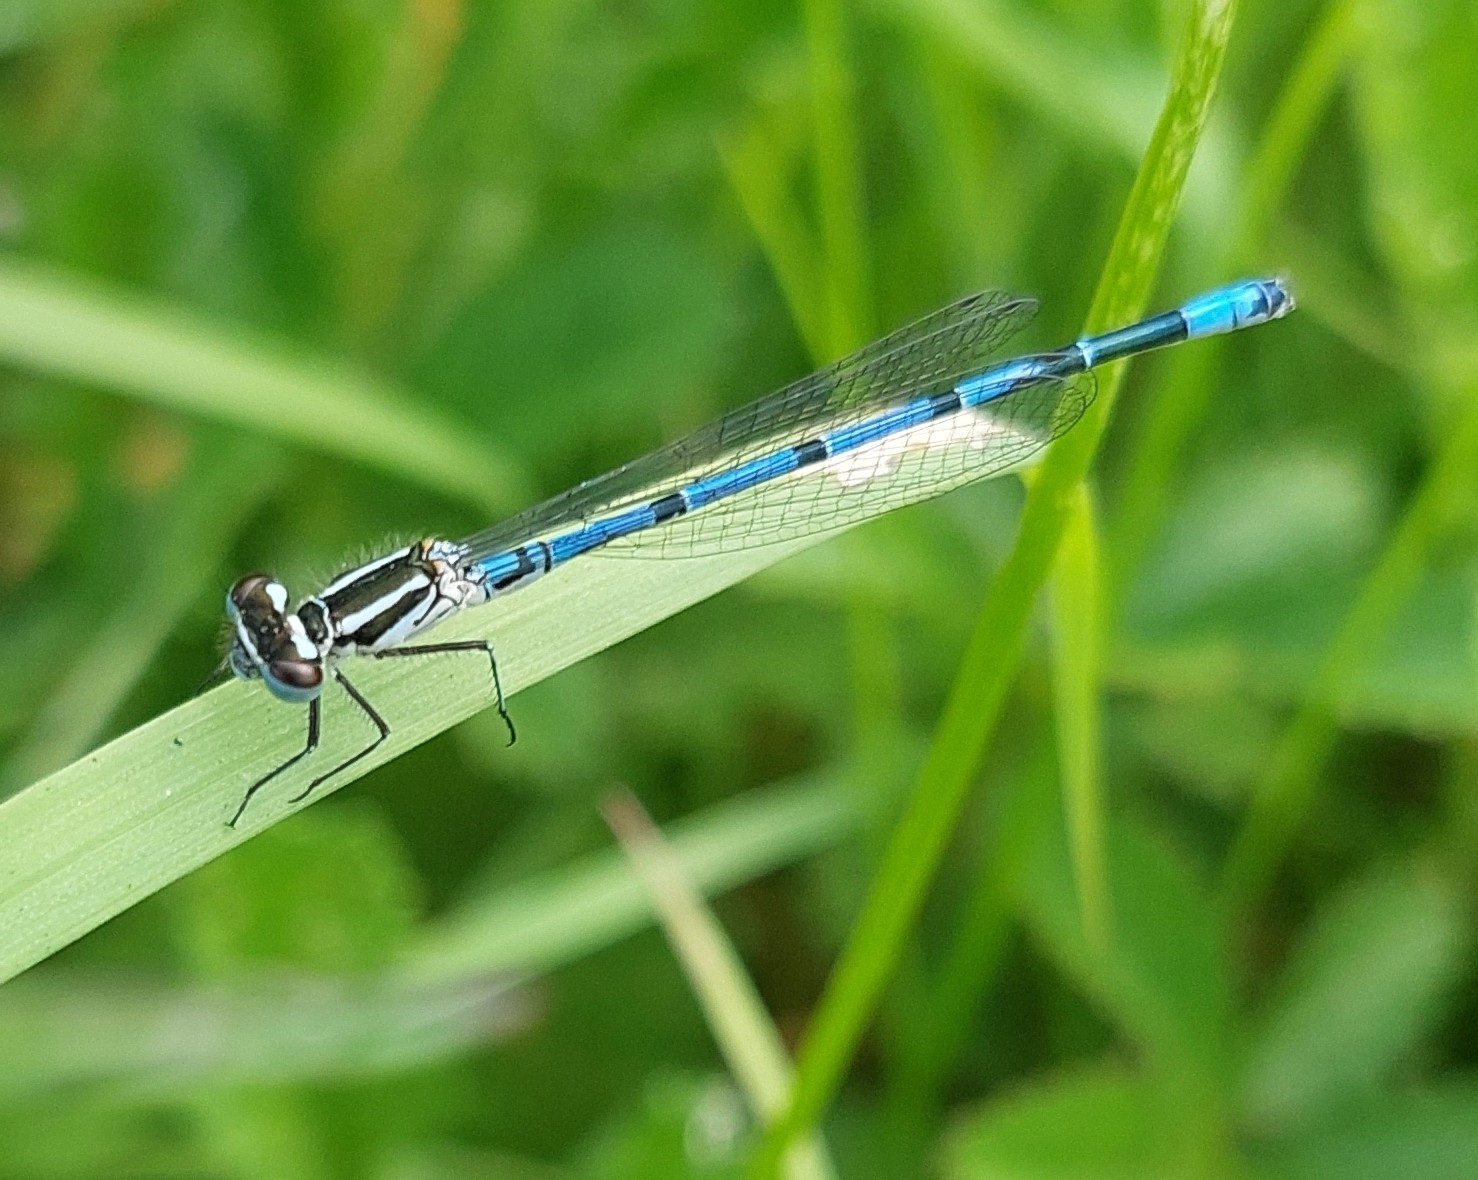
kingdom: Animalia
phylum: Arthropoda
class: Insecta
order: Odonata
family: Coenagrionidae
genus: Coenagrion
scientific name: Coenagrion puella
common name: Azure damselfly
